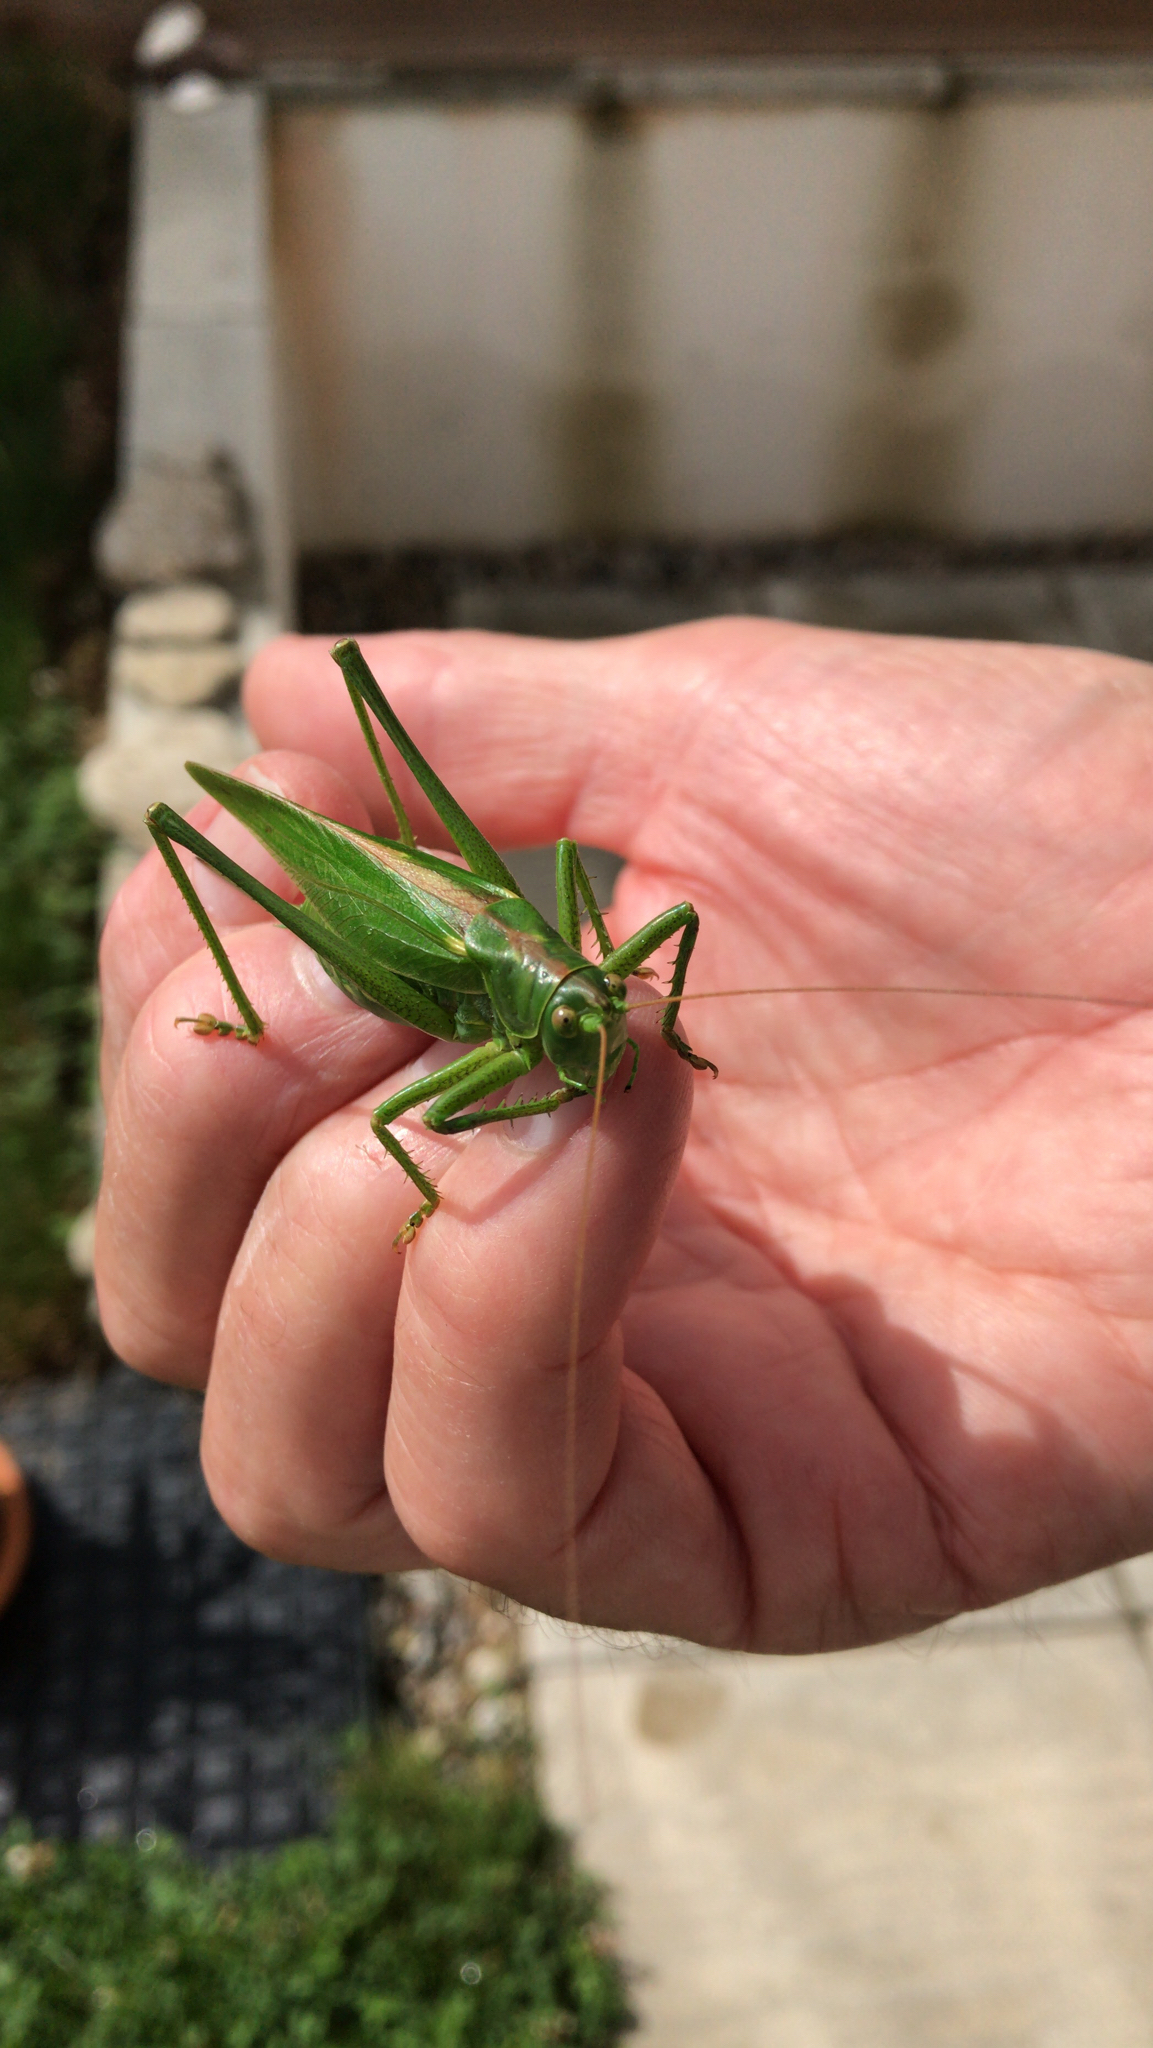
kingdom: Animalia
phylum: Arthropoda
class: Insecta
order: Orthoptera
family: Tettigoniidae
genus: Tettigonia
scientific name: Tettigonia viridissima
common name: Great green bush-cricket
